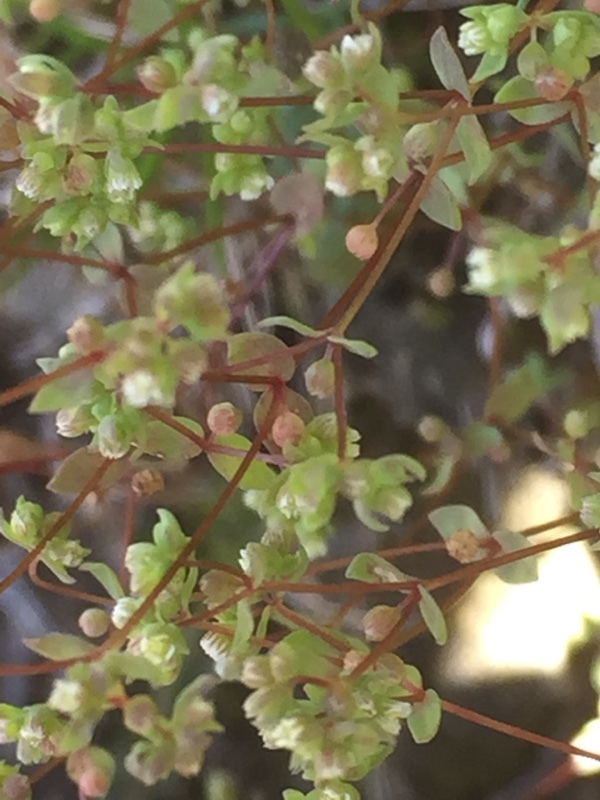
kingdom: Plantae
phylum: Tracheophyta
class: Magnoliopsida
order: Malpighiales
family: Linaceae
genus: Radiola
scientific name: Radiola linoides
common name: Allseed
